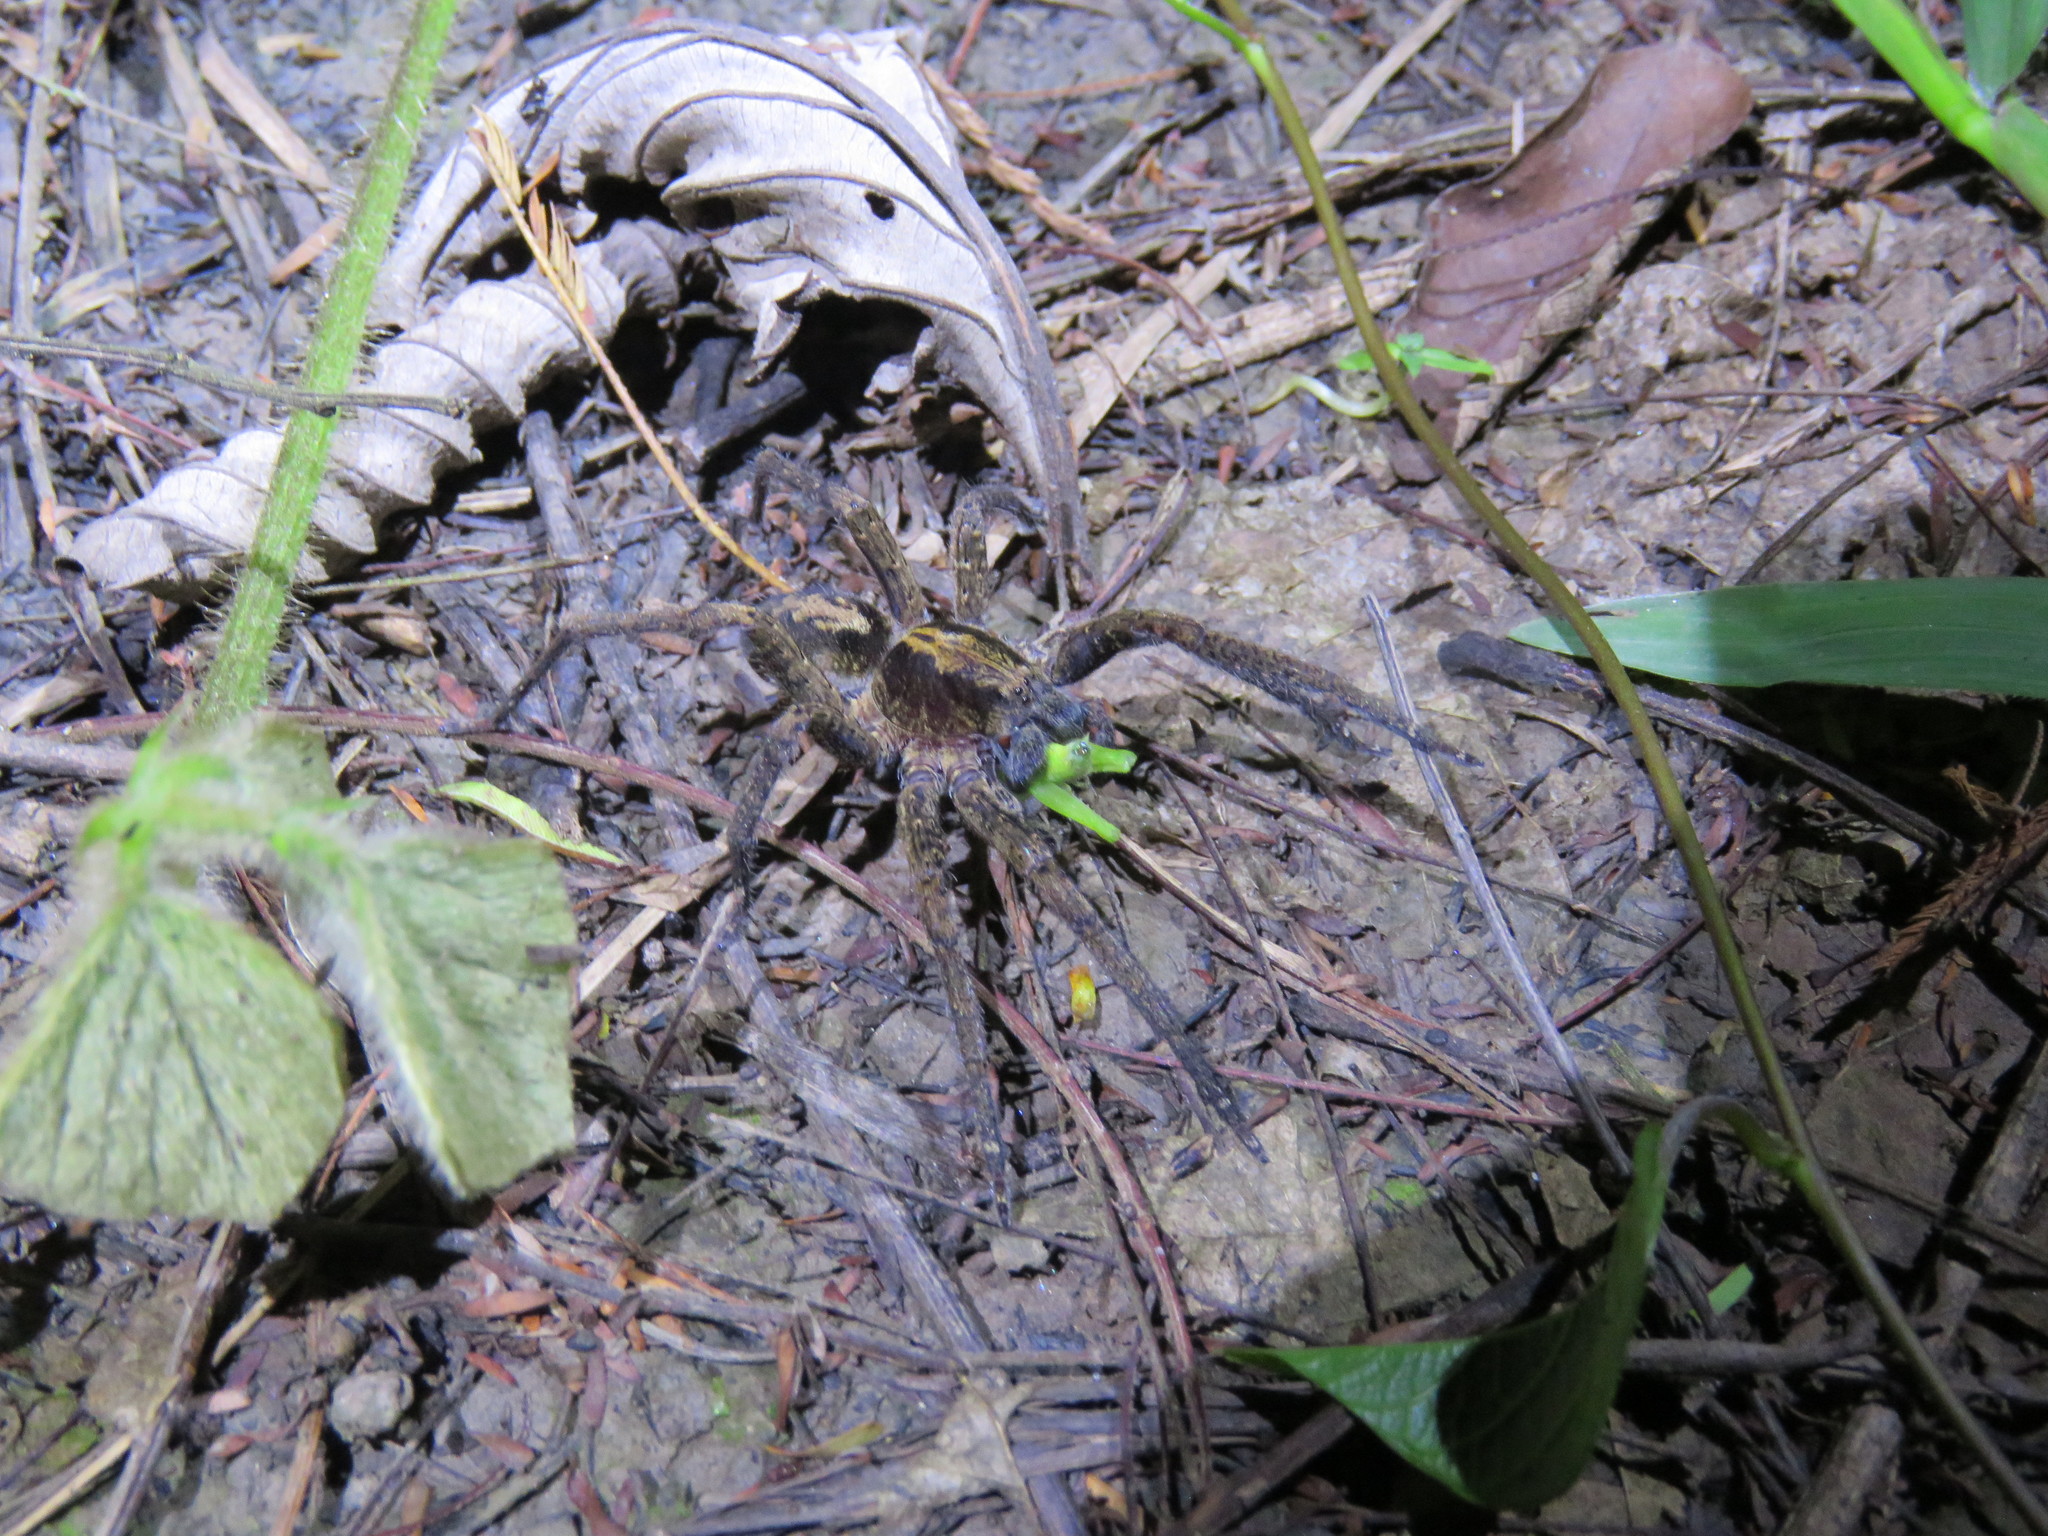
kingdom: Animalia
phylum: Arthropoda
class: Arachnida
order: Araneae
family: Ctenidae
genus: Ctenus
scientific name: Ctenus crulsi
